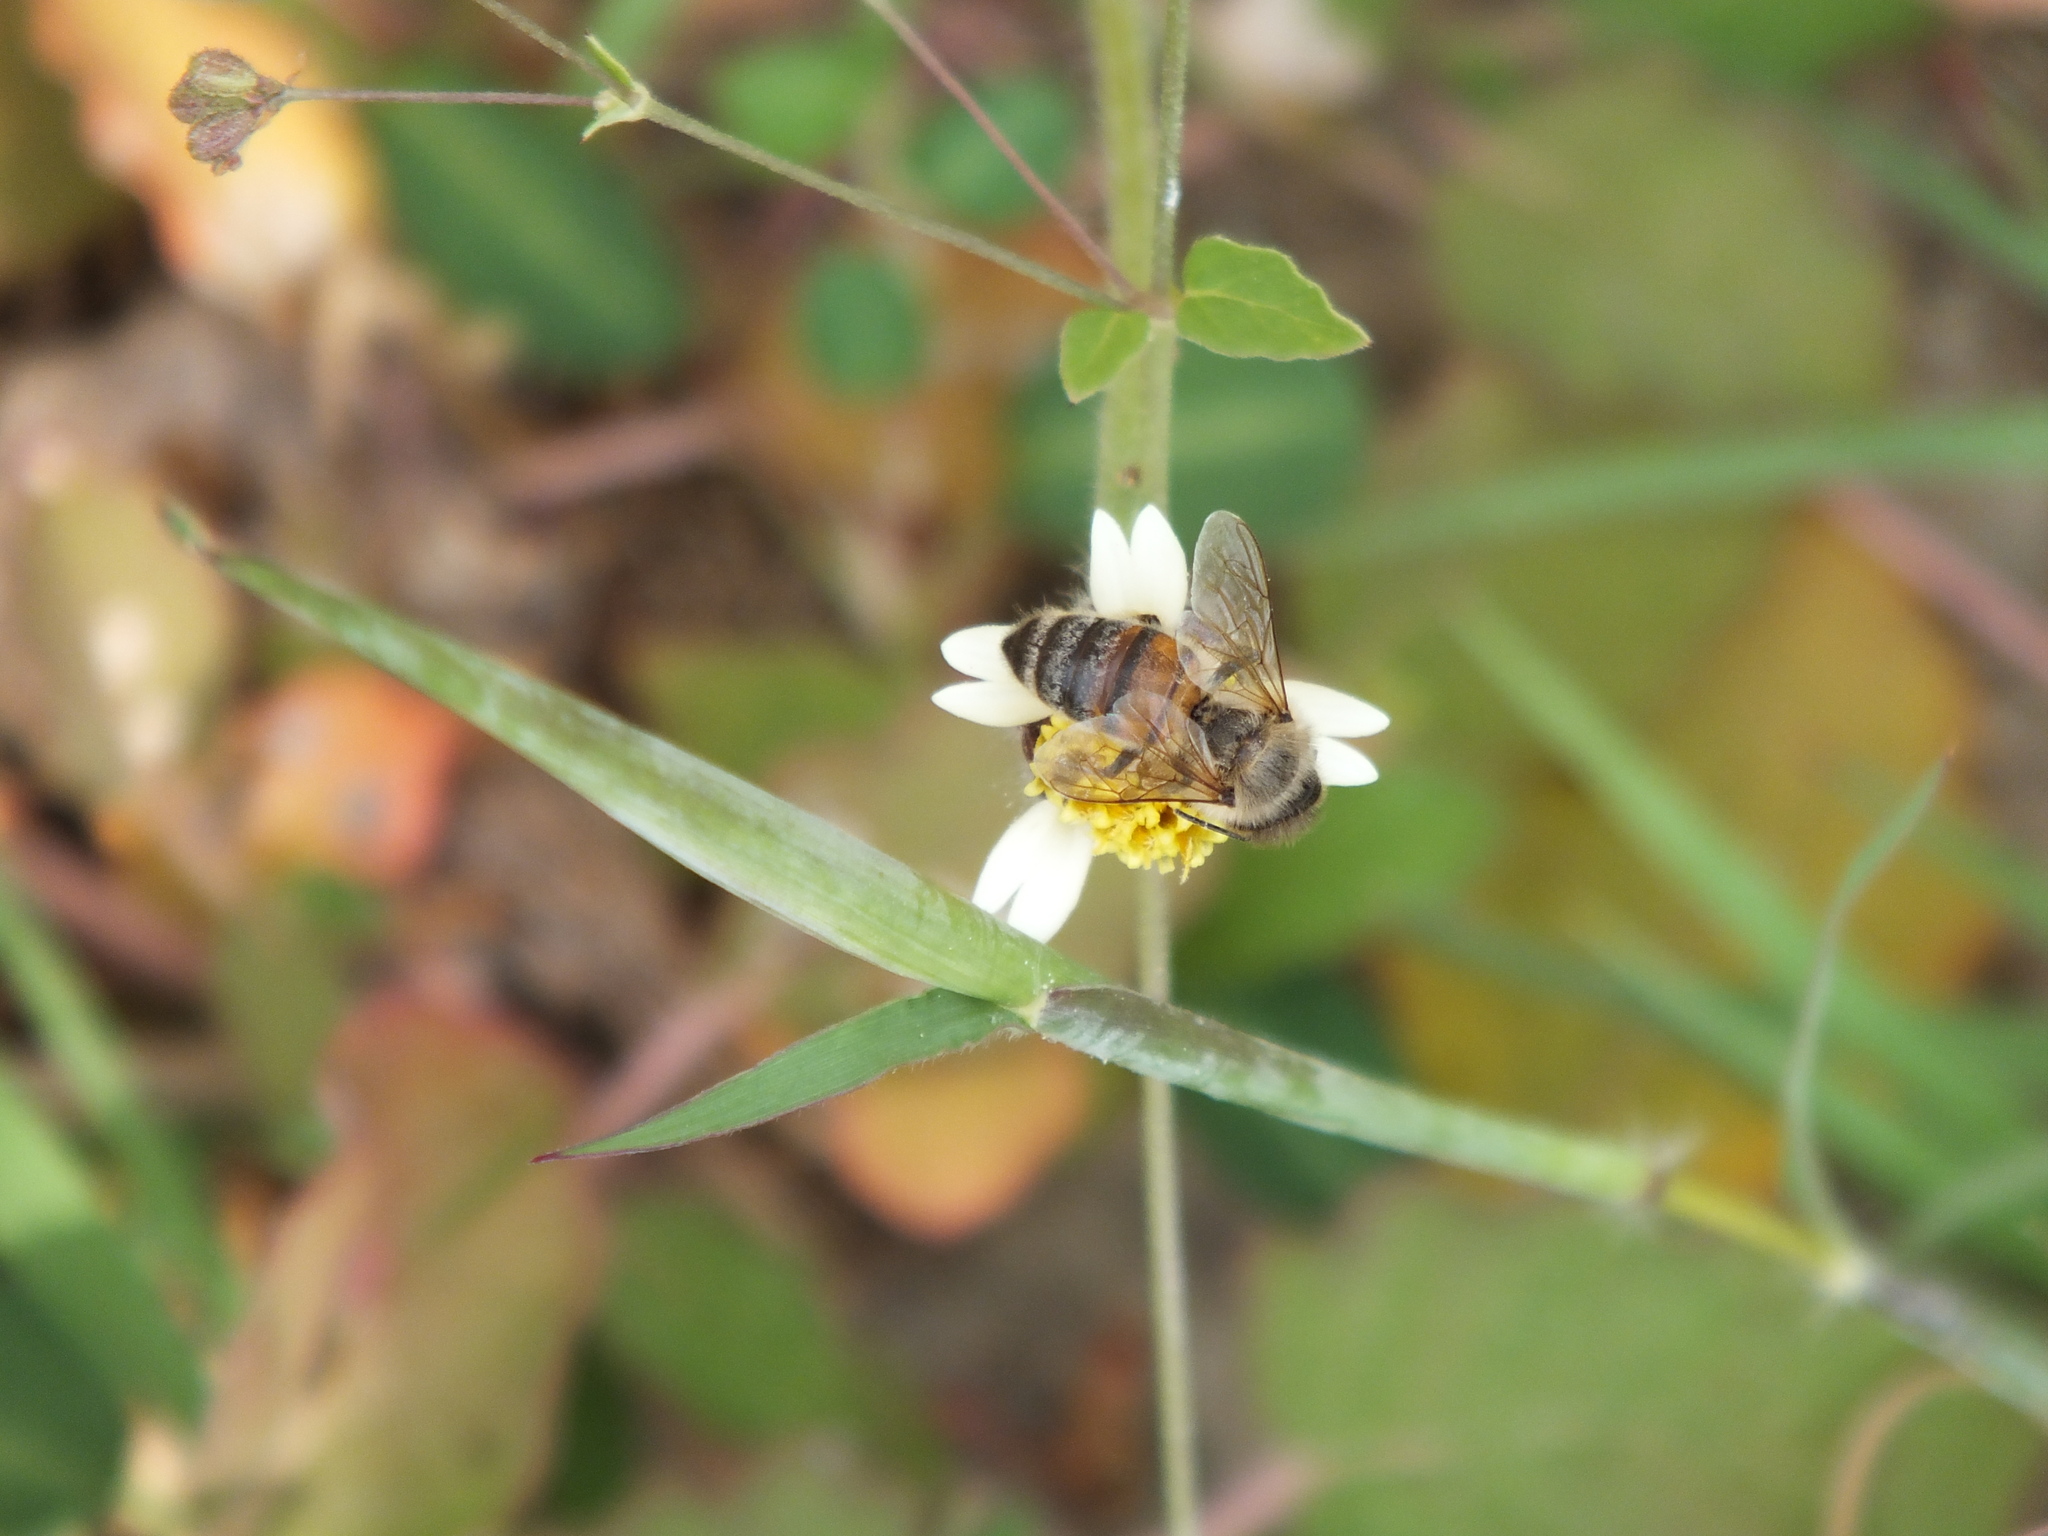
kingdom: Animalia
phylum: Arthropoda
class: Insecta
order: Hymenoptera
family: Apidae
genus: Apis
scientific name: Apis mellifera
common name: Honey bee
